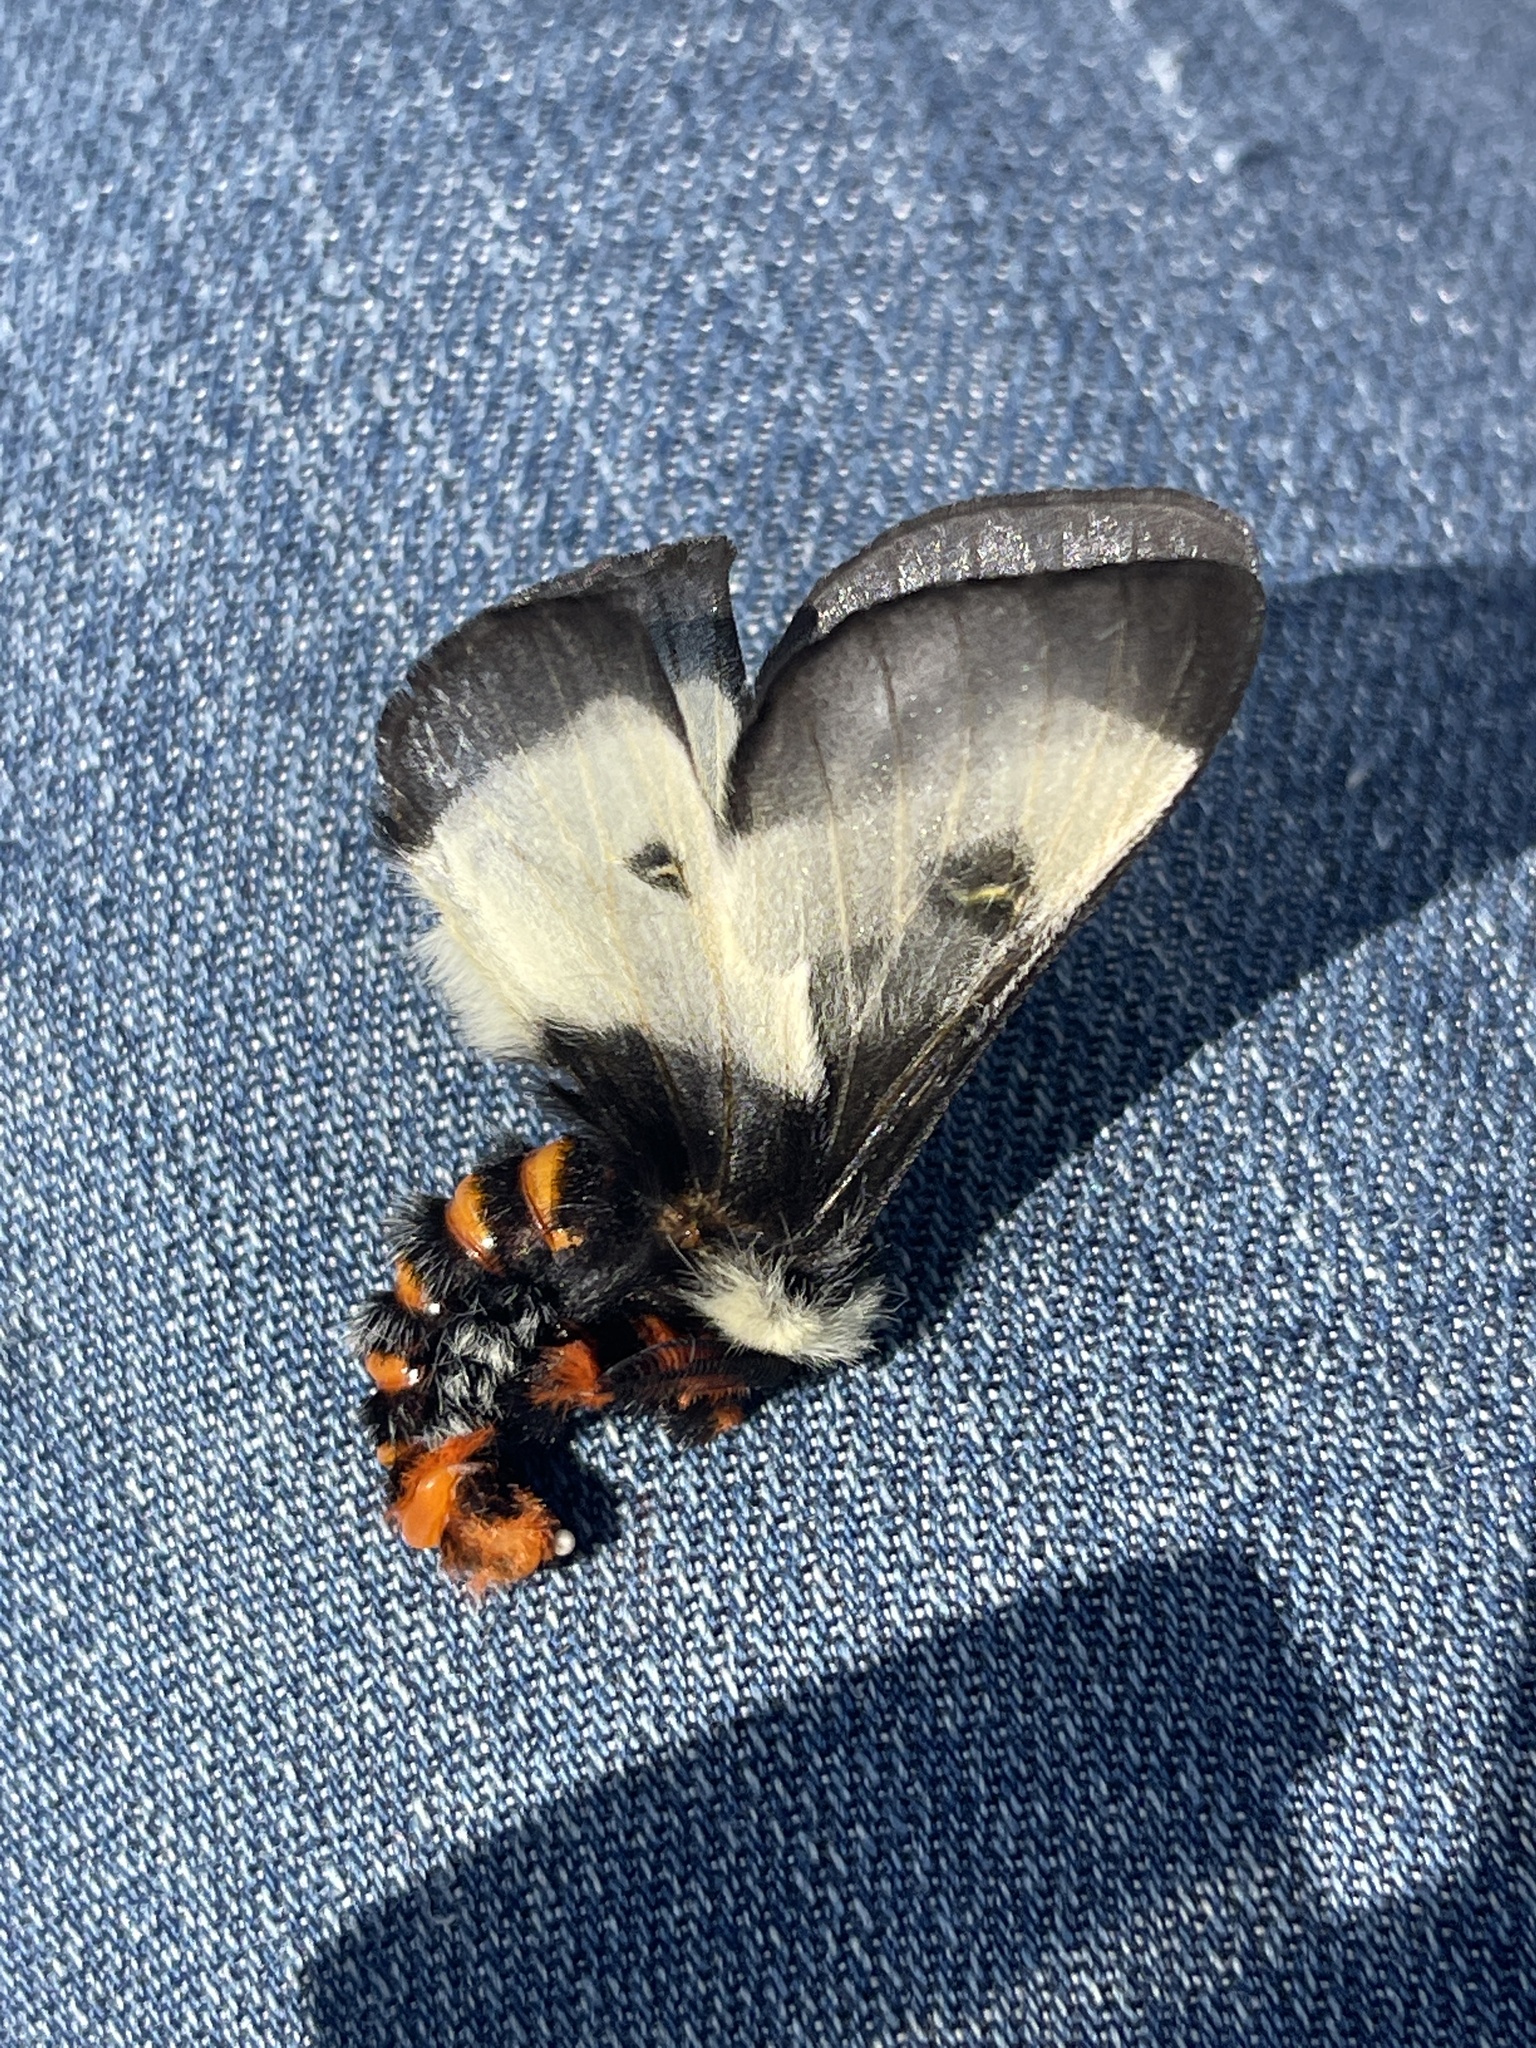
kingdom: Animalia
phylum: Arthropoda
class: Insecta
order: Lepidoptera
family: Saturniidae
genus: Hemileuca
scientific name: Hemileuca lucina
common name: New england buckmoth
